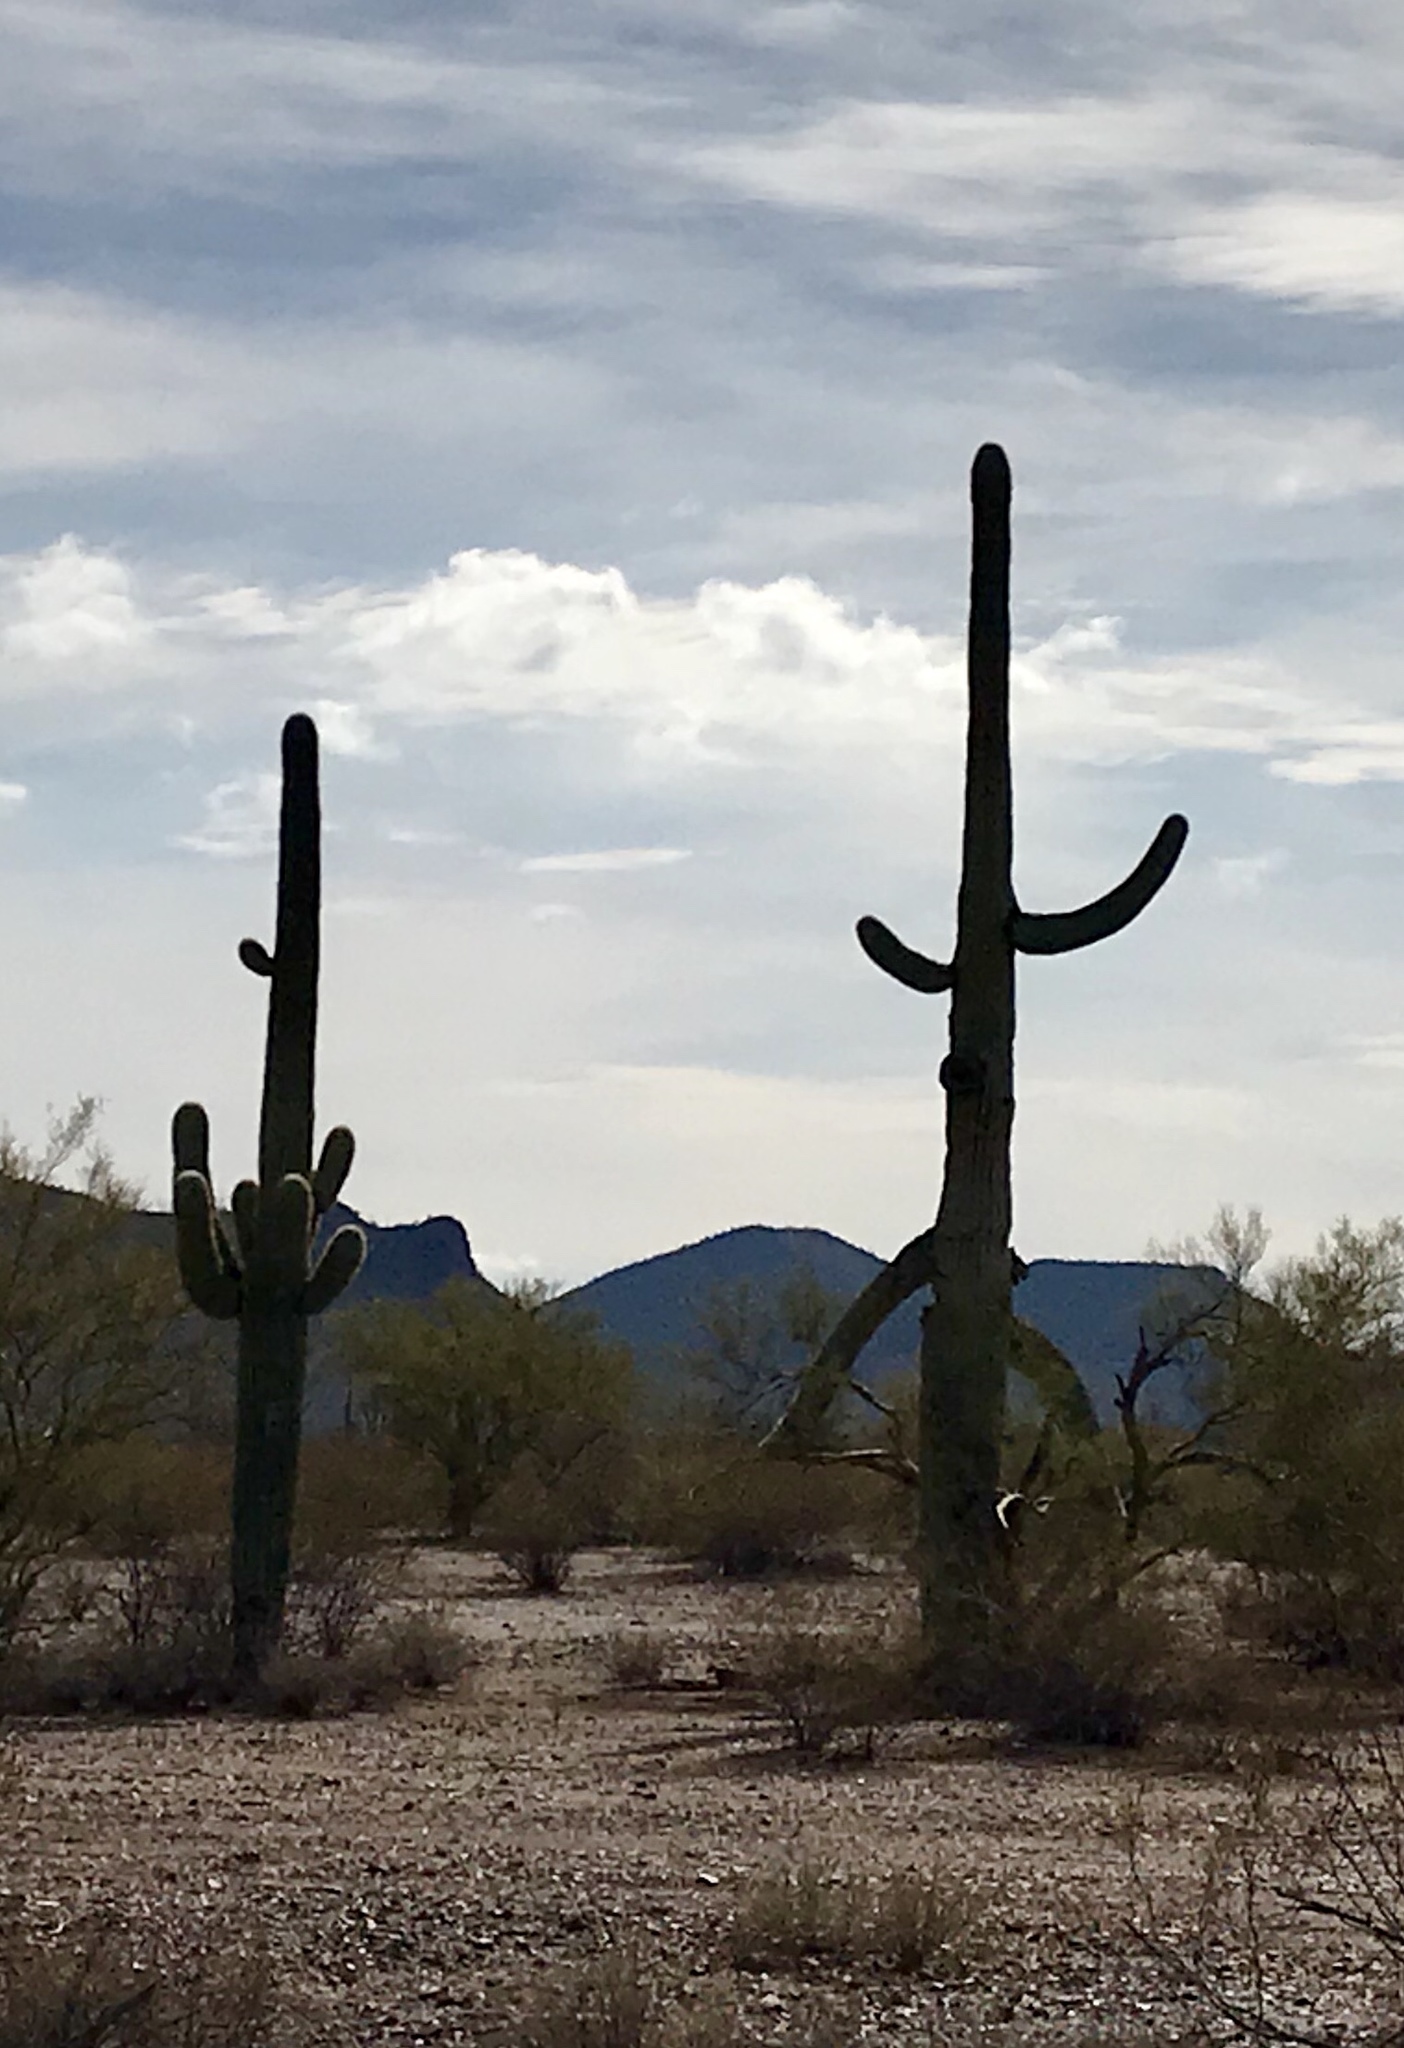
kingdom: Plantae
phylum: Tracheophyta
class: Magnoliopsida
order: Caryophyllales
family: Cactaceae
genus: Carnegiea
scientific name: Carnegiea gigantea
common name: Saguaro
